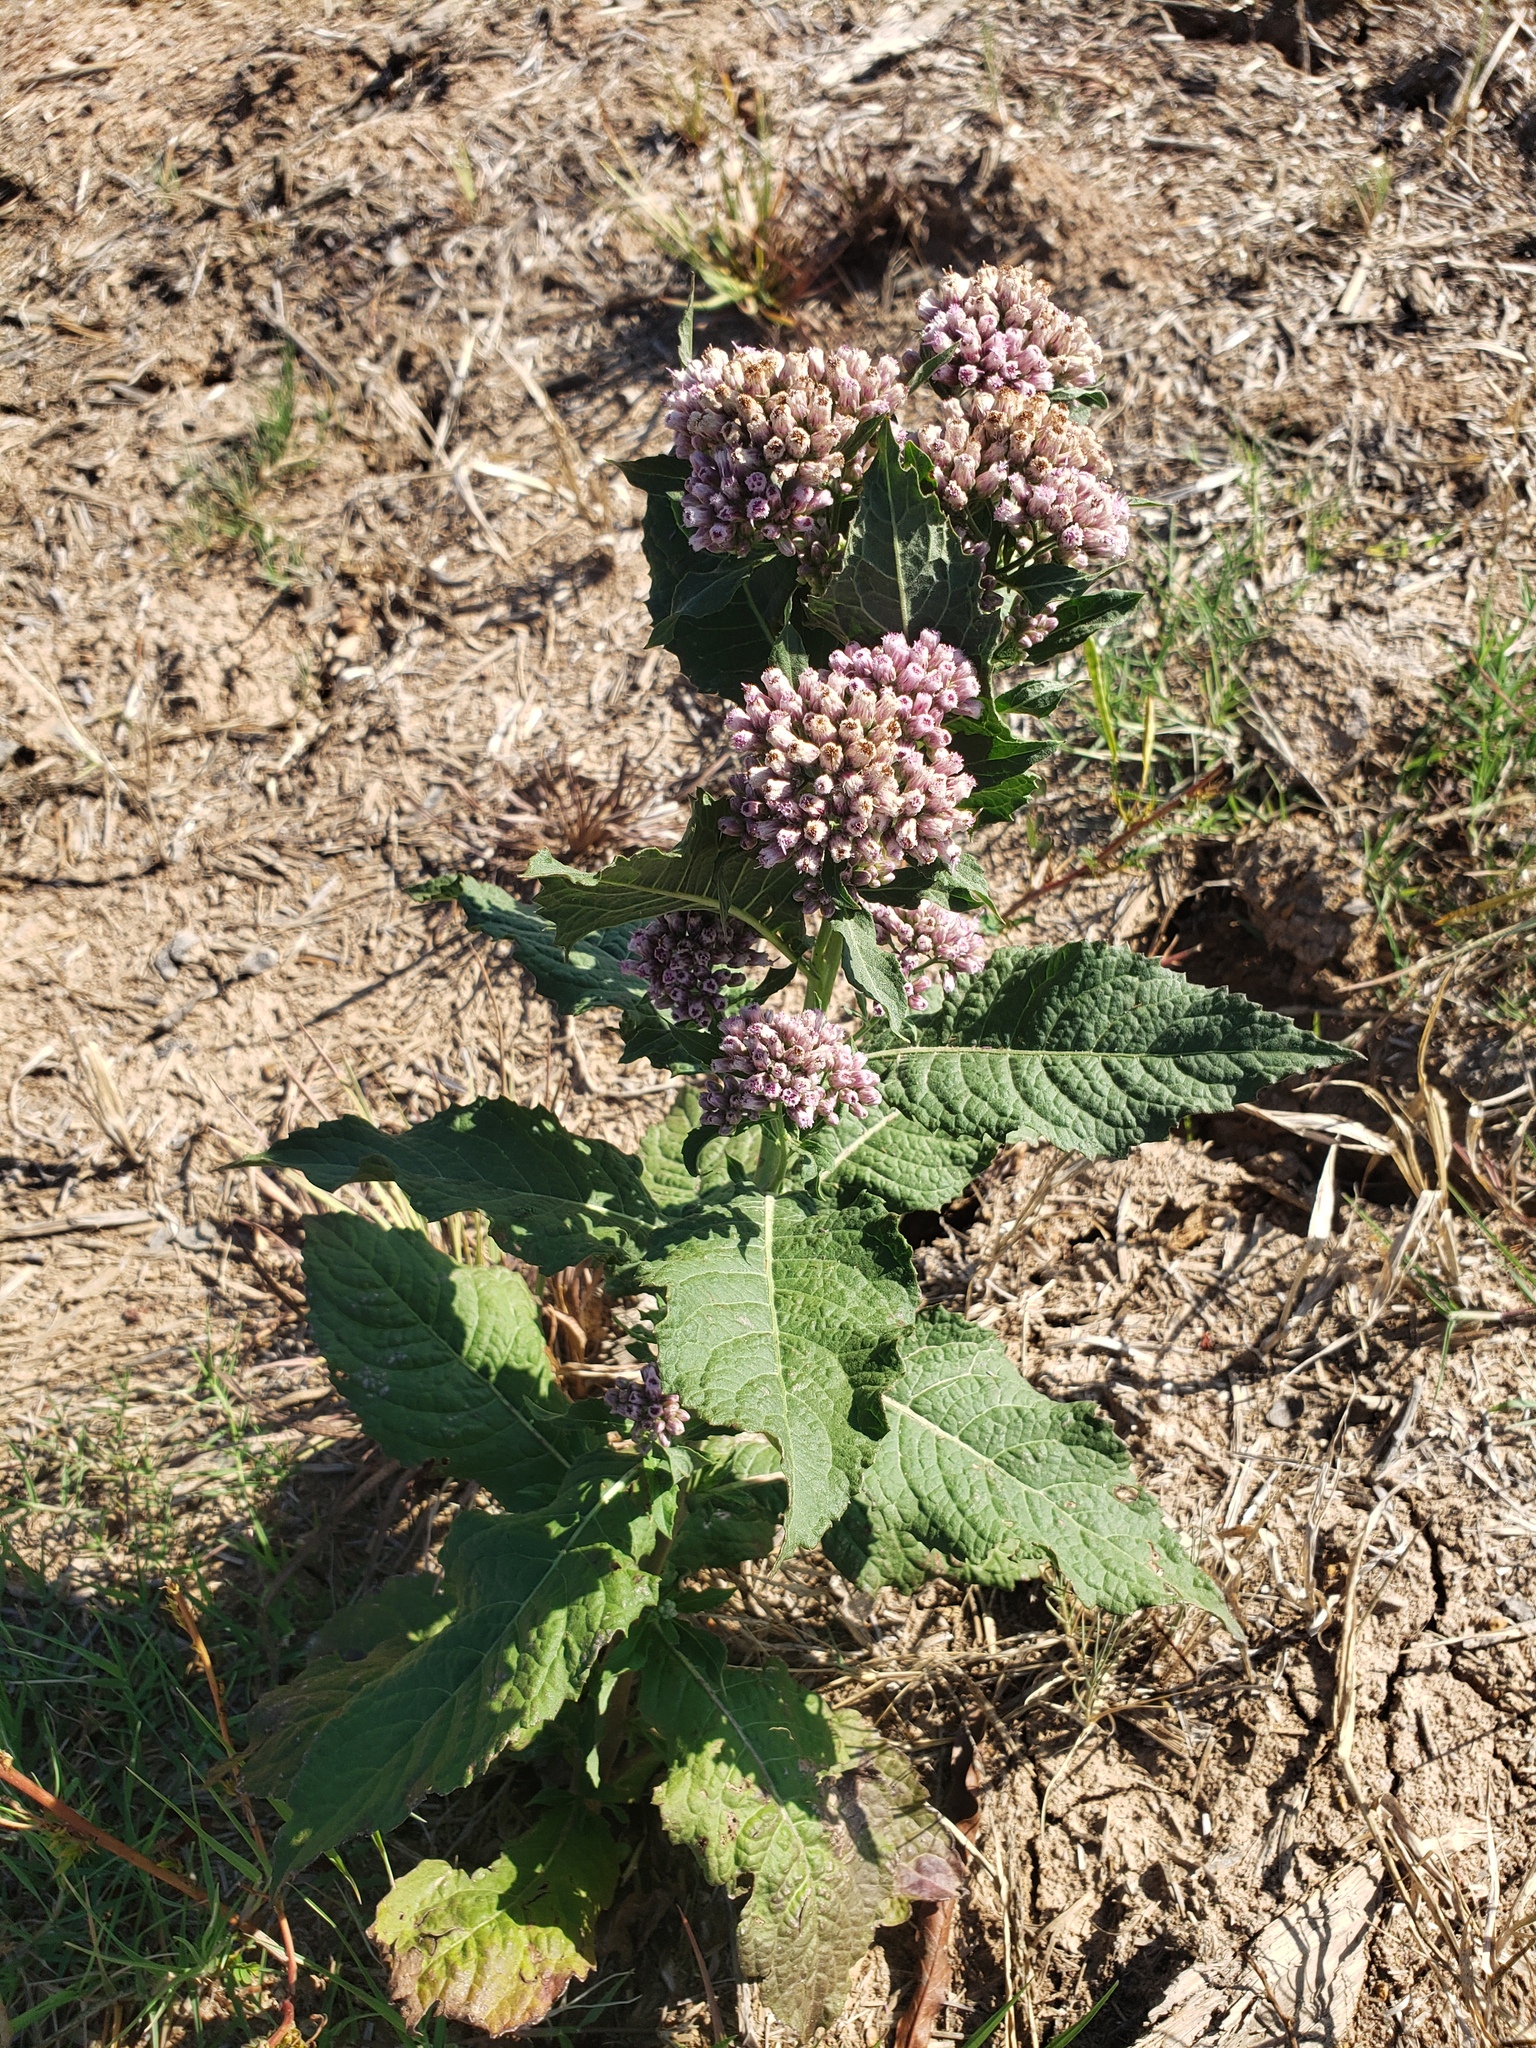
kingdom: Plantae
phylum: Tracheophyta
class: Magnoliopsida
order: Asterales
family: Asteraceae
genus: Pluchea
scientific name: Pluchea camphorata
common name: Camphor pluchea
